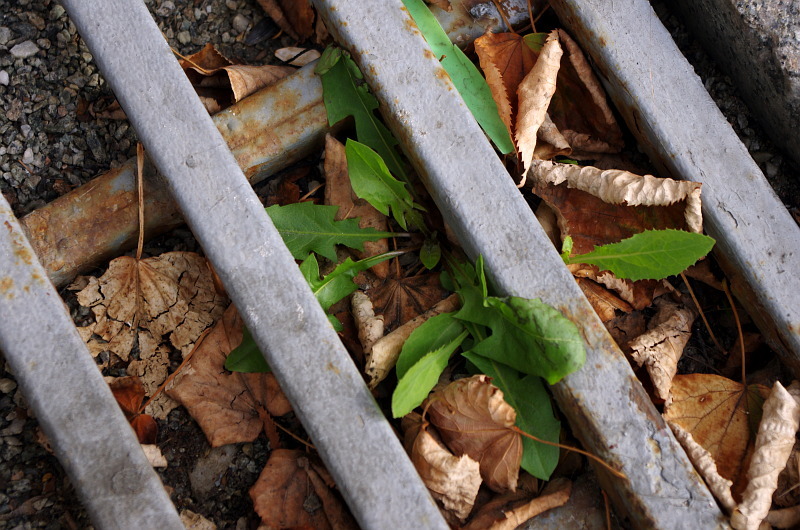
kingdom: Plantae
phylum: Tracheophyta
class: Magnoliopsida
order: Asterales
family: Asteraceae
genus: Taraxacum
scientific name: Taraxacum officinale
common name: Common dandelion
